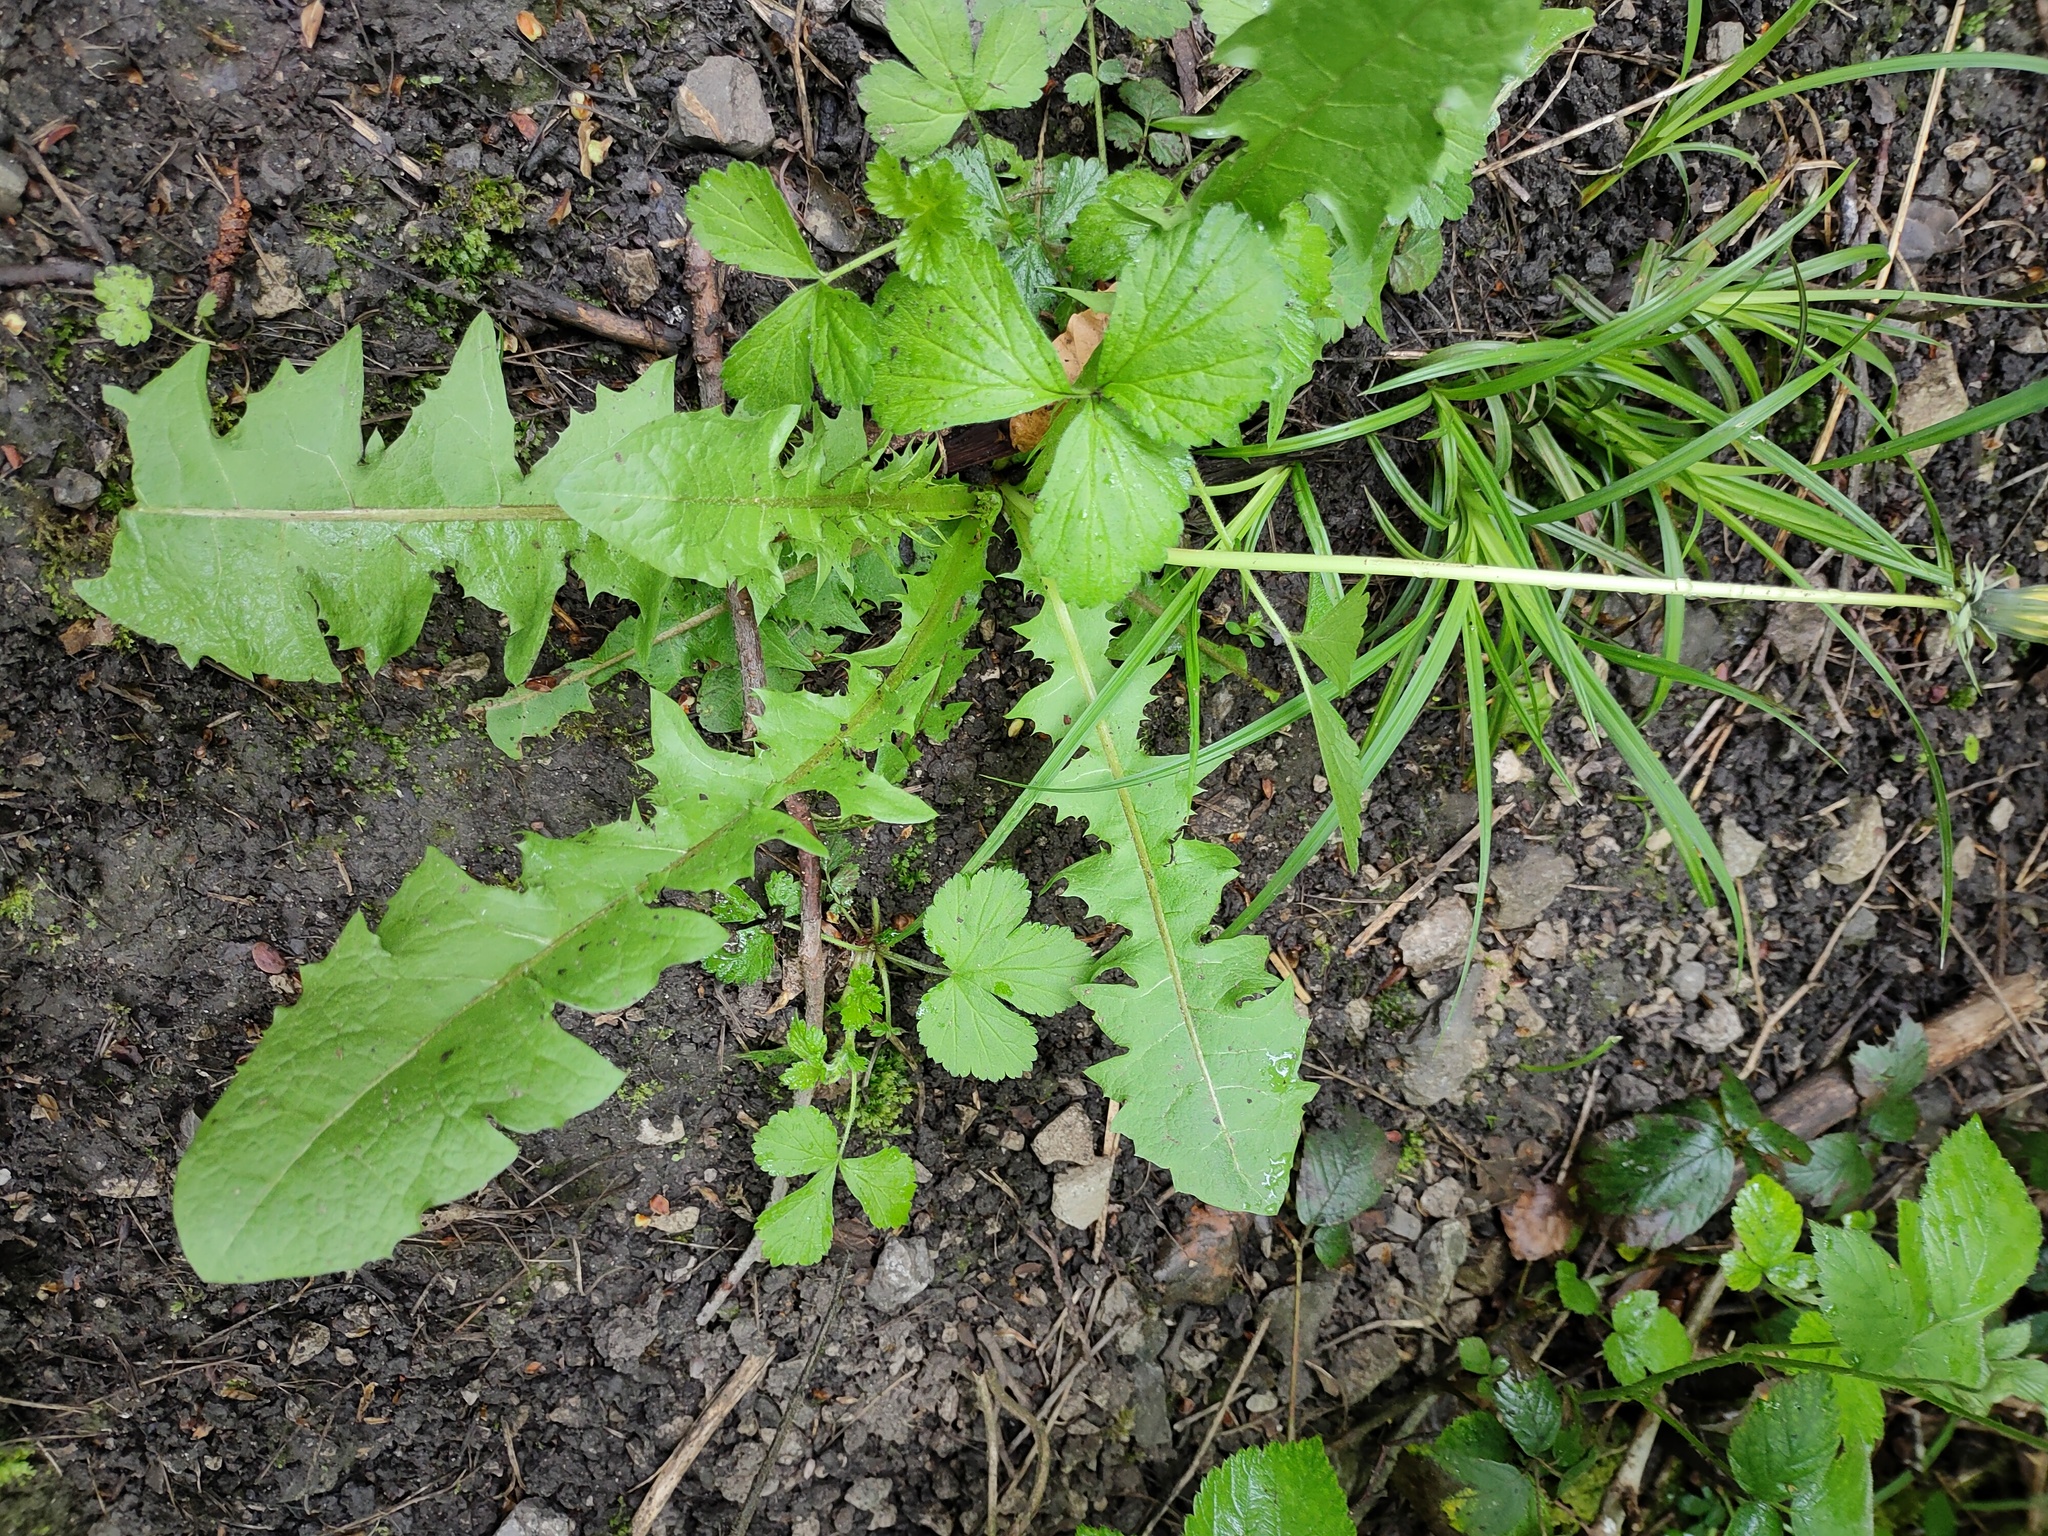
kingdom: Plantae
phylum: Tracheophyta
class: Magnoliopsida
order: Asterales
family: Asteraceae
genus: Taraxacum
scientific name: Taraxacum officinale
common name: Common dandelion
